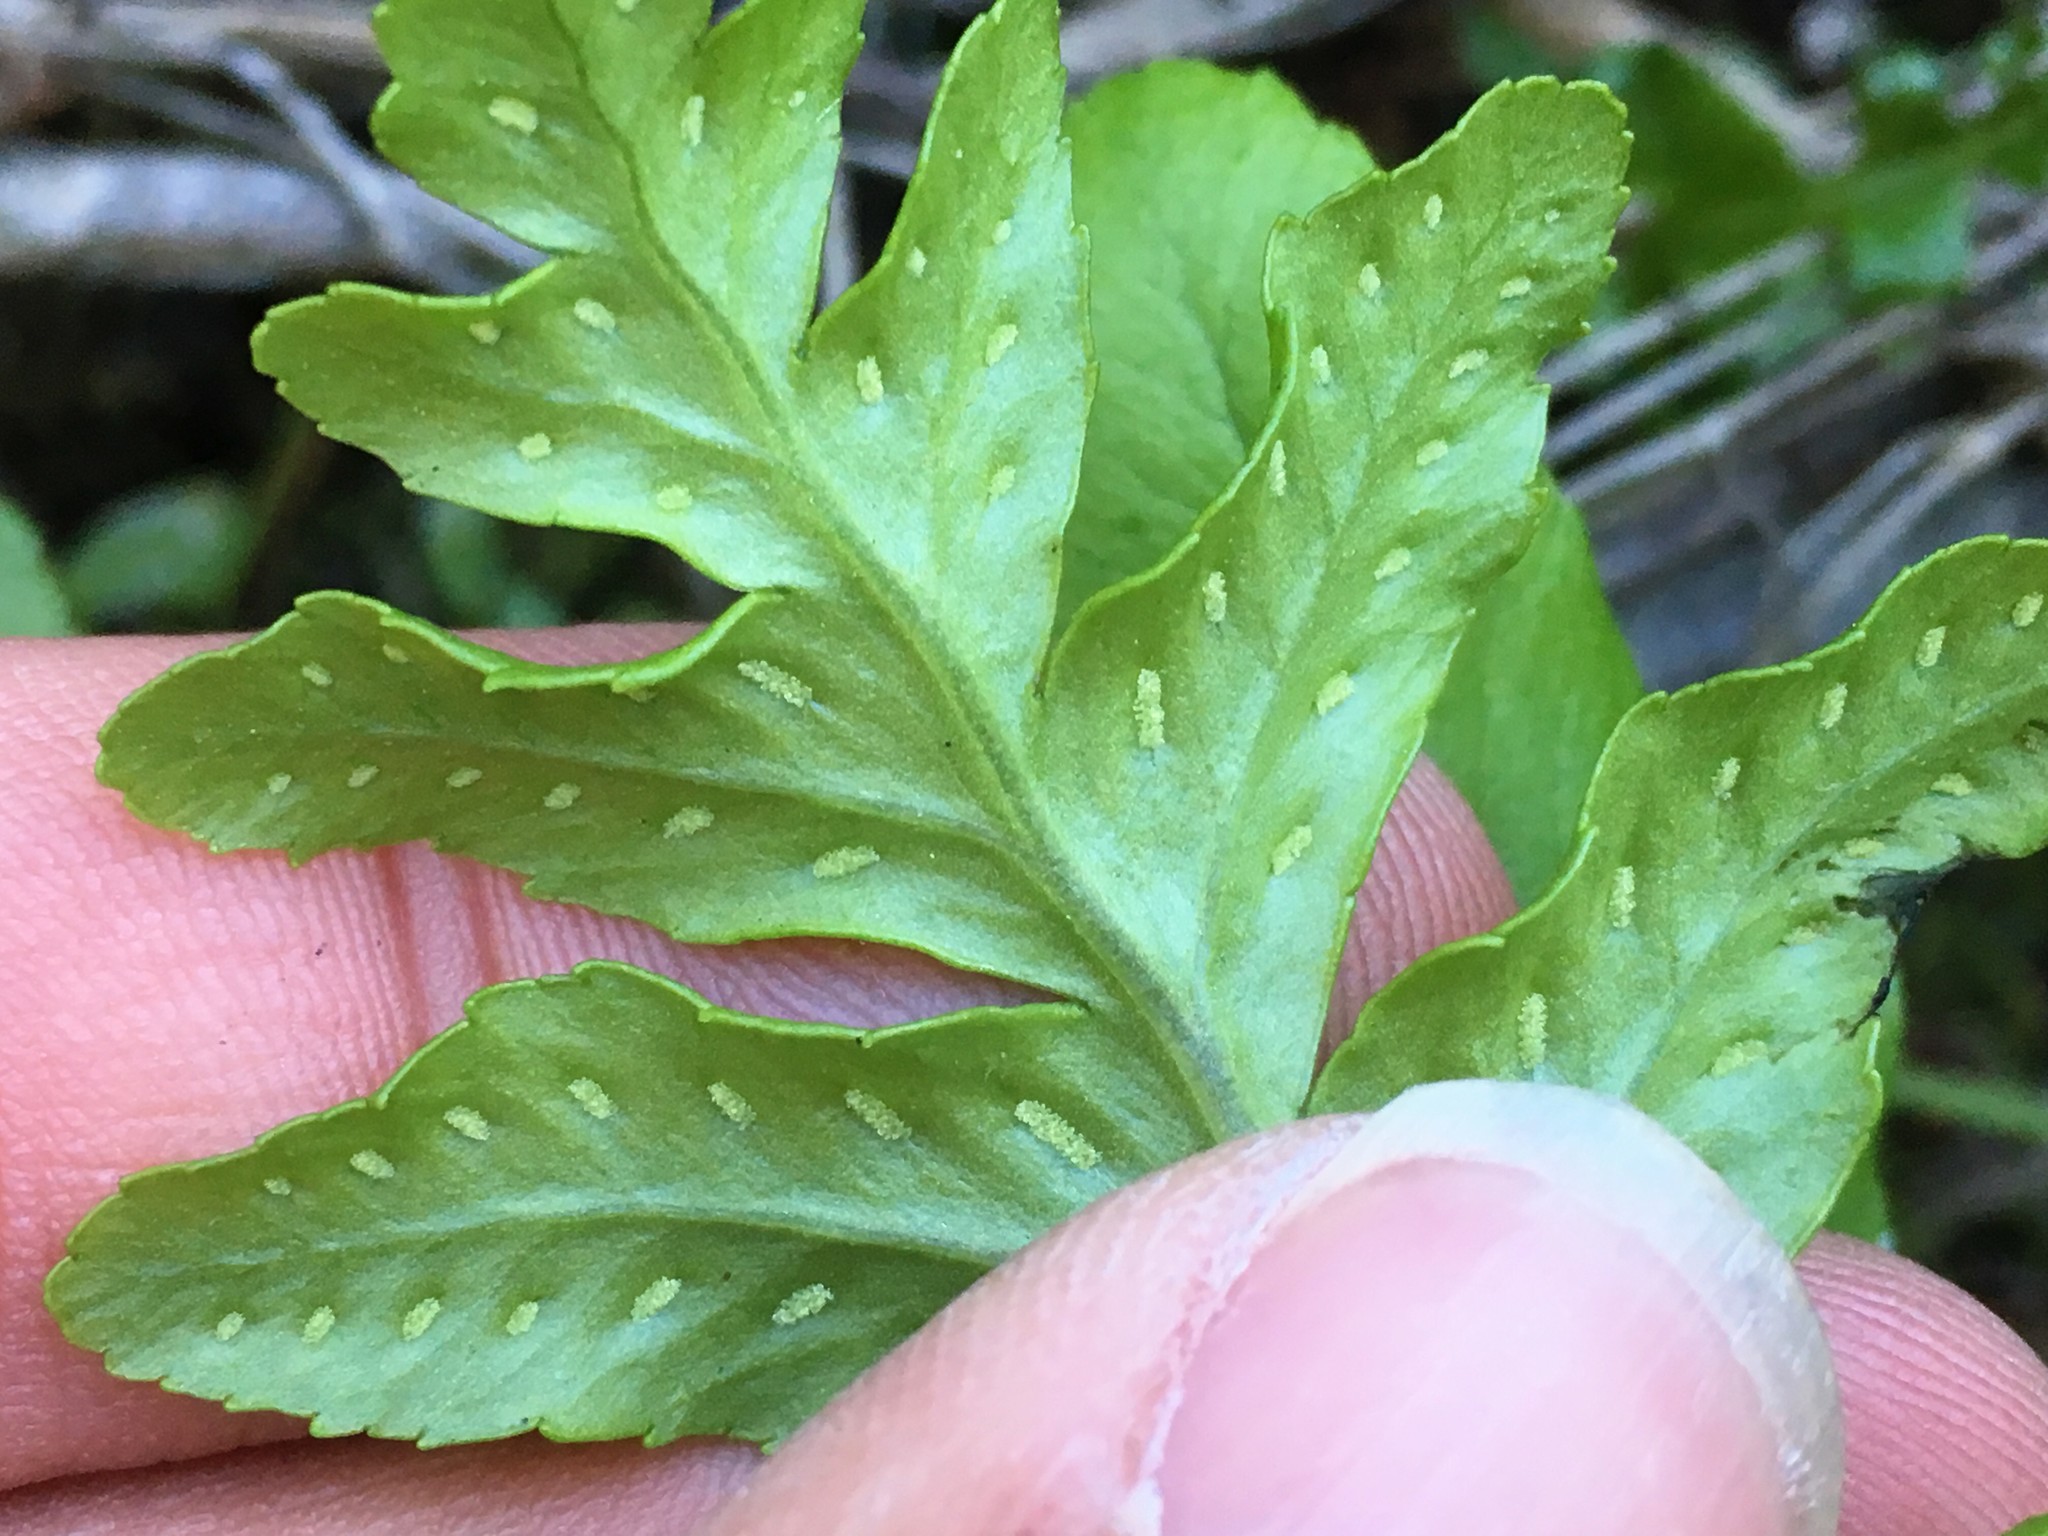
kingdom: Plantae
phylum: Tracheophyta
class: Polypodiopsida
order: Polypodiales
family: Polypodiaceae
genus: Polypodium
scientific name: Polypodium californicum
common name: California polypody
